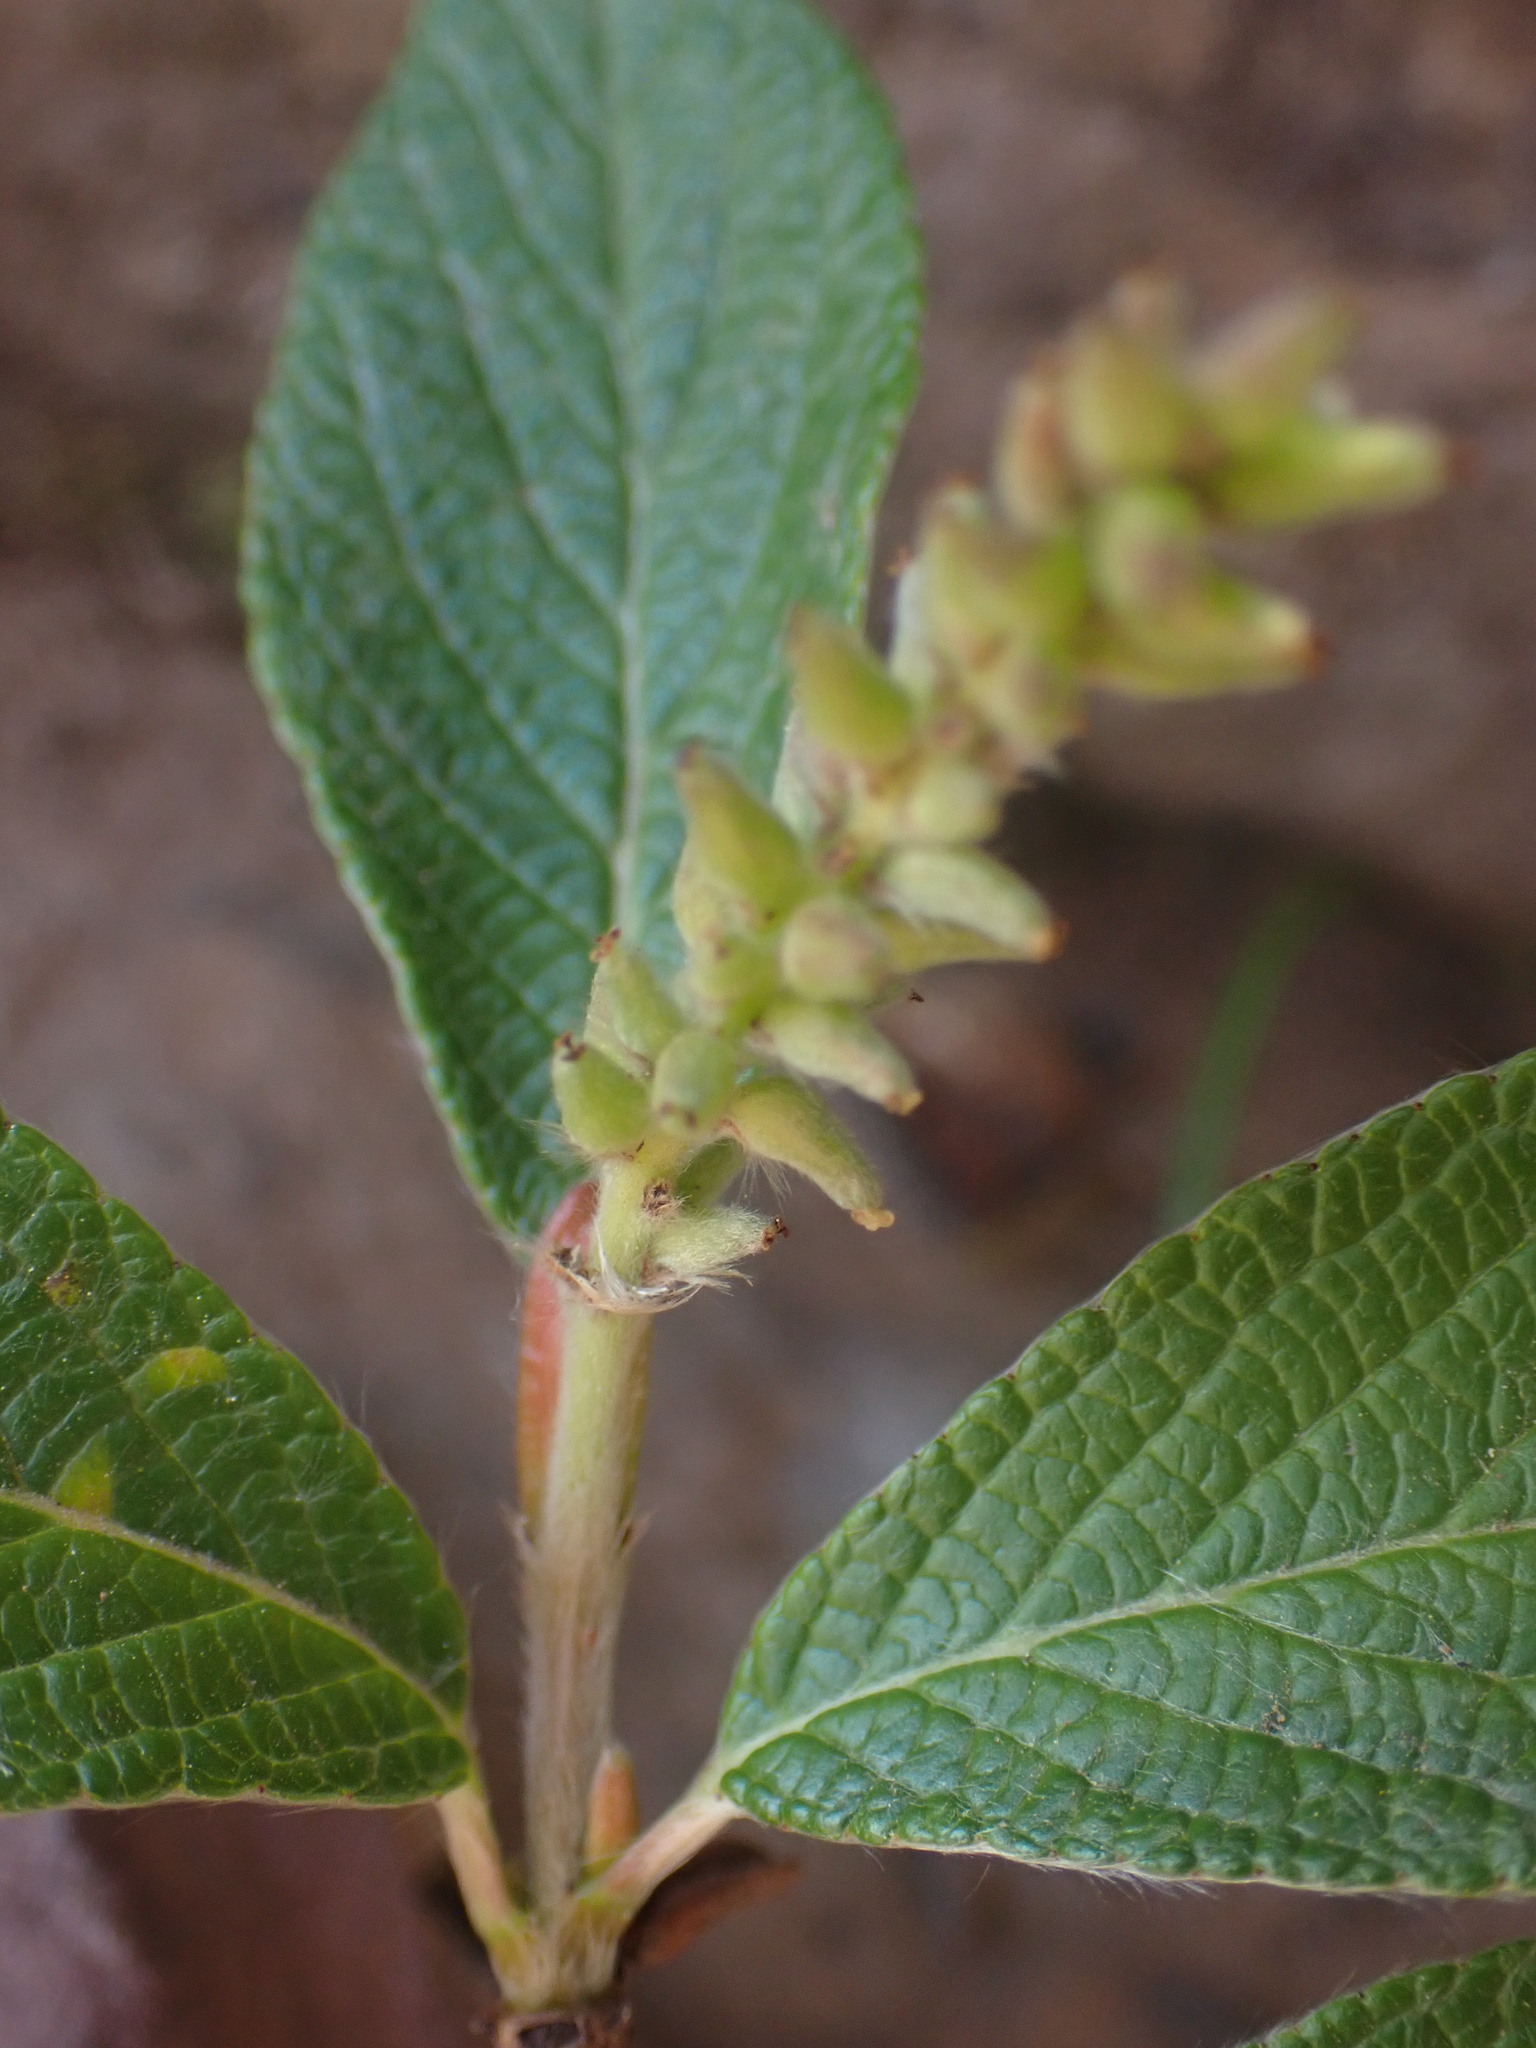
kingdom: Plantae
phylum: Tracheophyta
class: Magnoliopsida
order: Malpighiales
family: Salicaceae
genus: Salix
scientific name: Salix vestita
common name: Hairy willow
